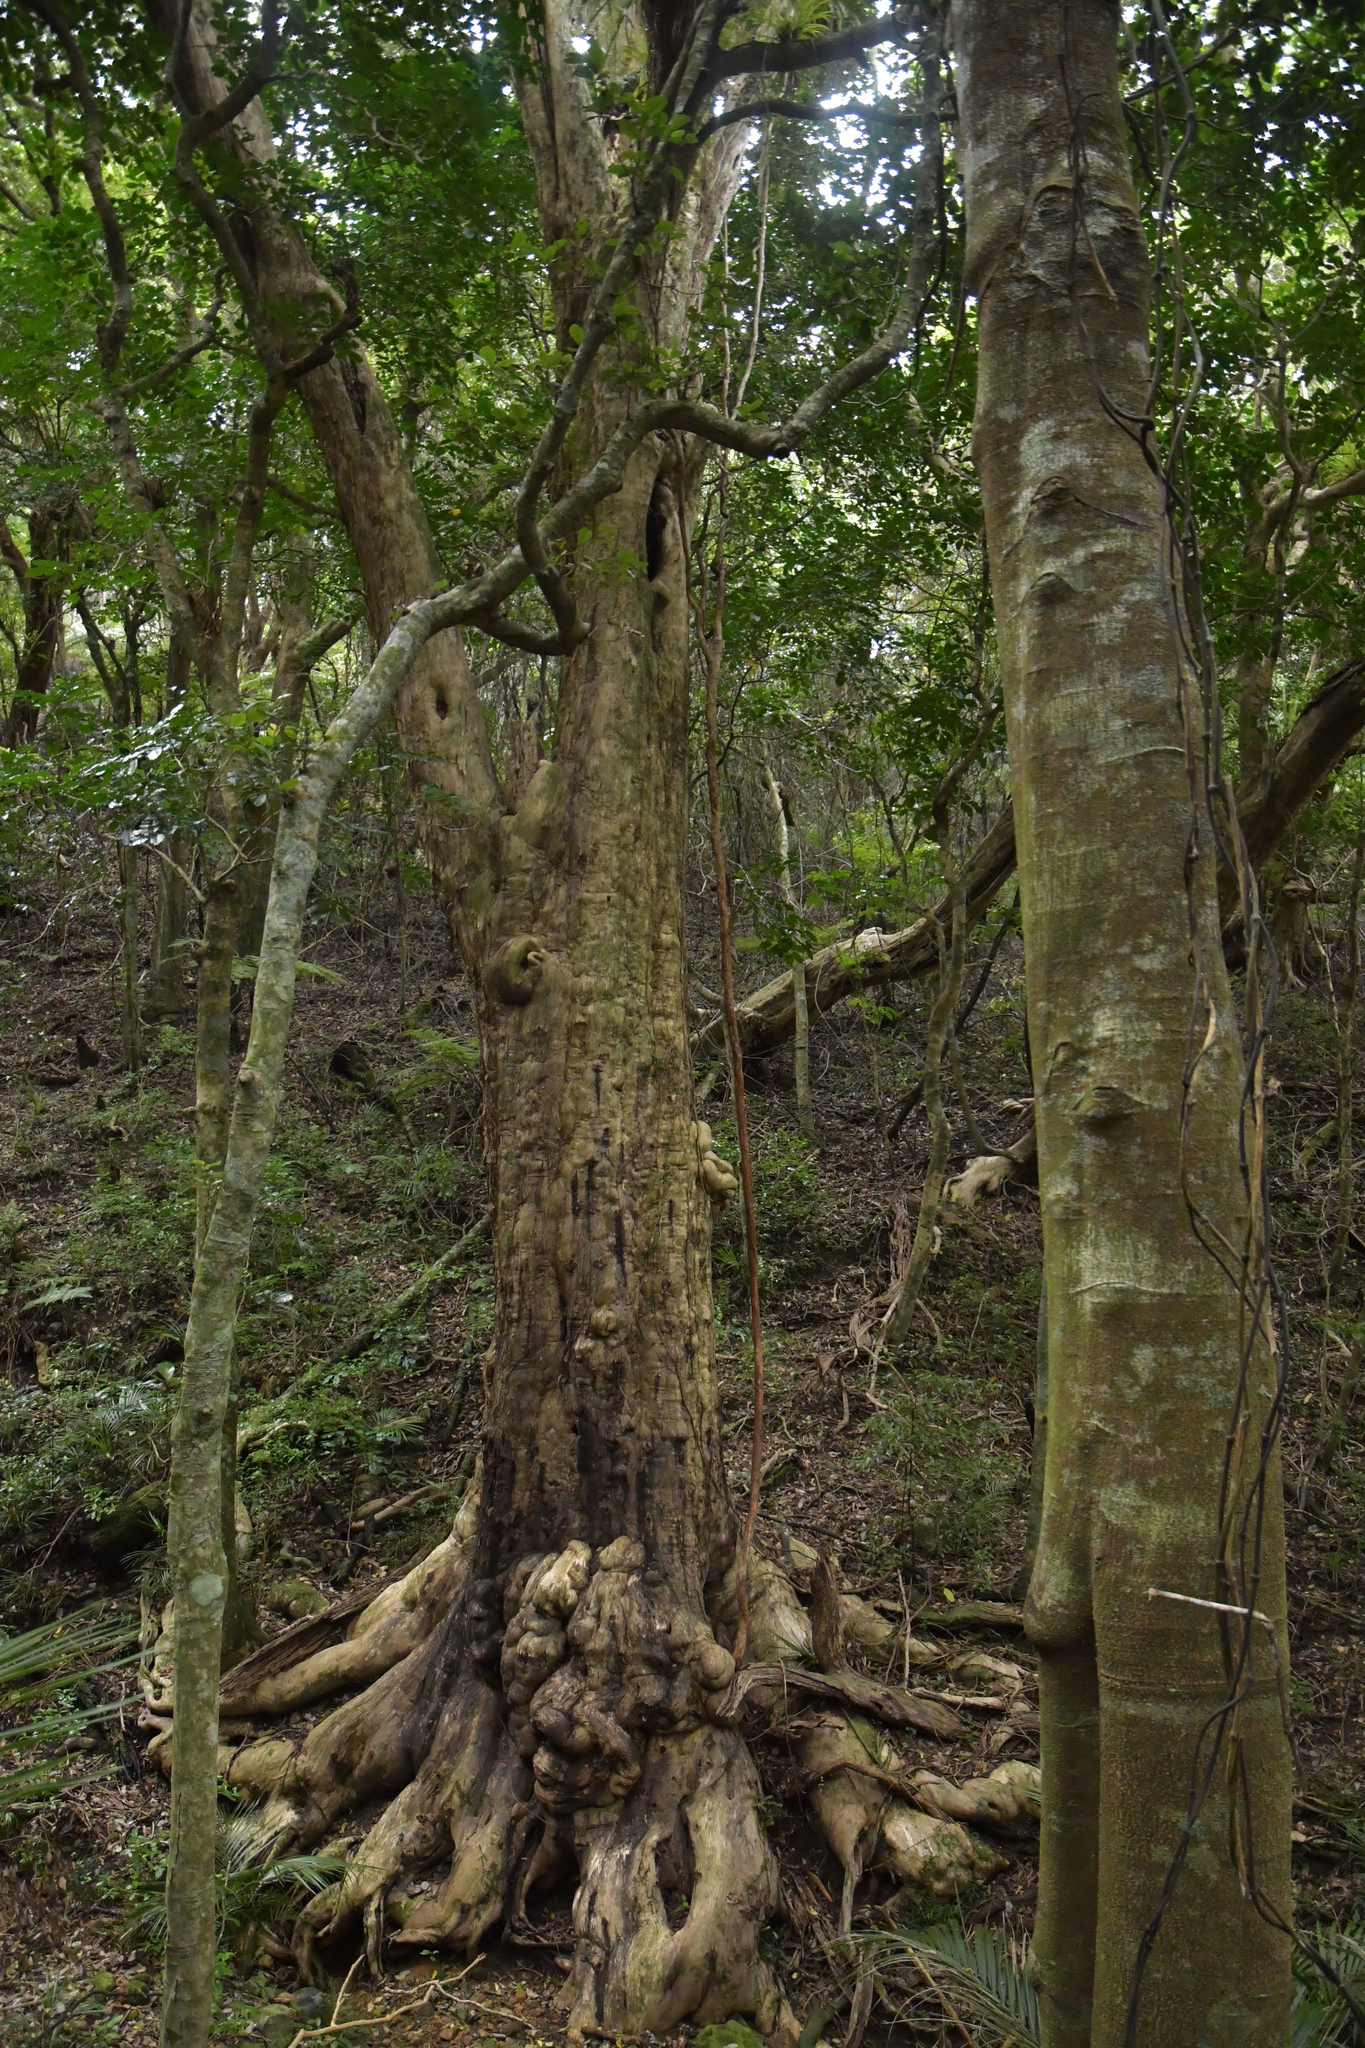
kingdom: Plantae
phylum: Tracheophyta
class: Magnoliopsida
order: Lamiales
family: Lamiaceae
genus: Vitex
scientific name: Vitex lucens
